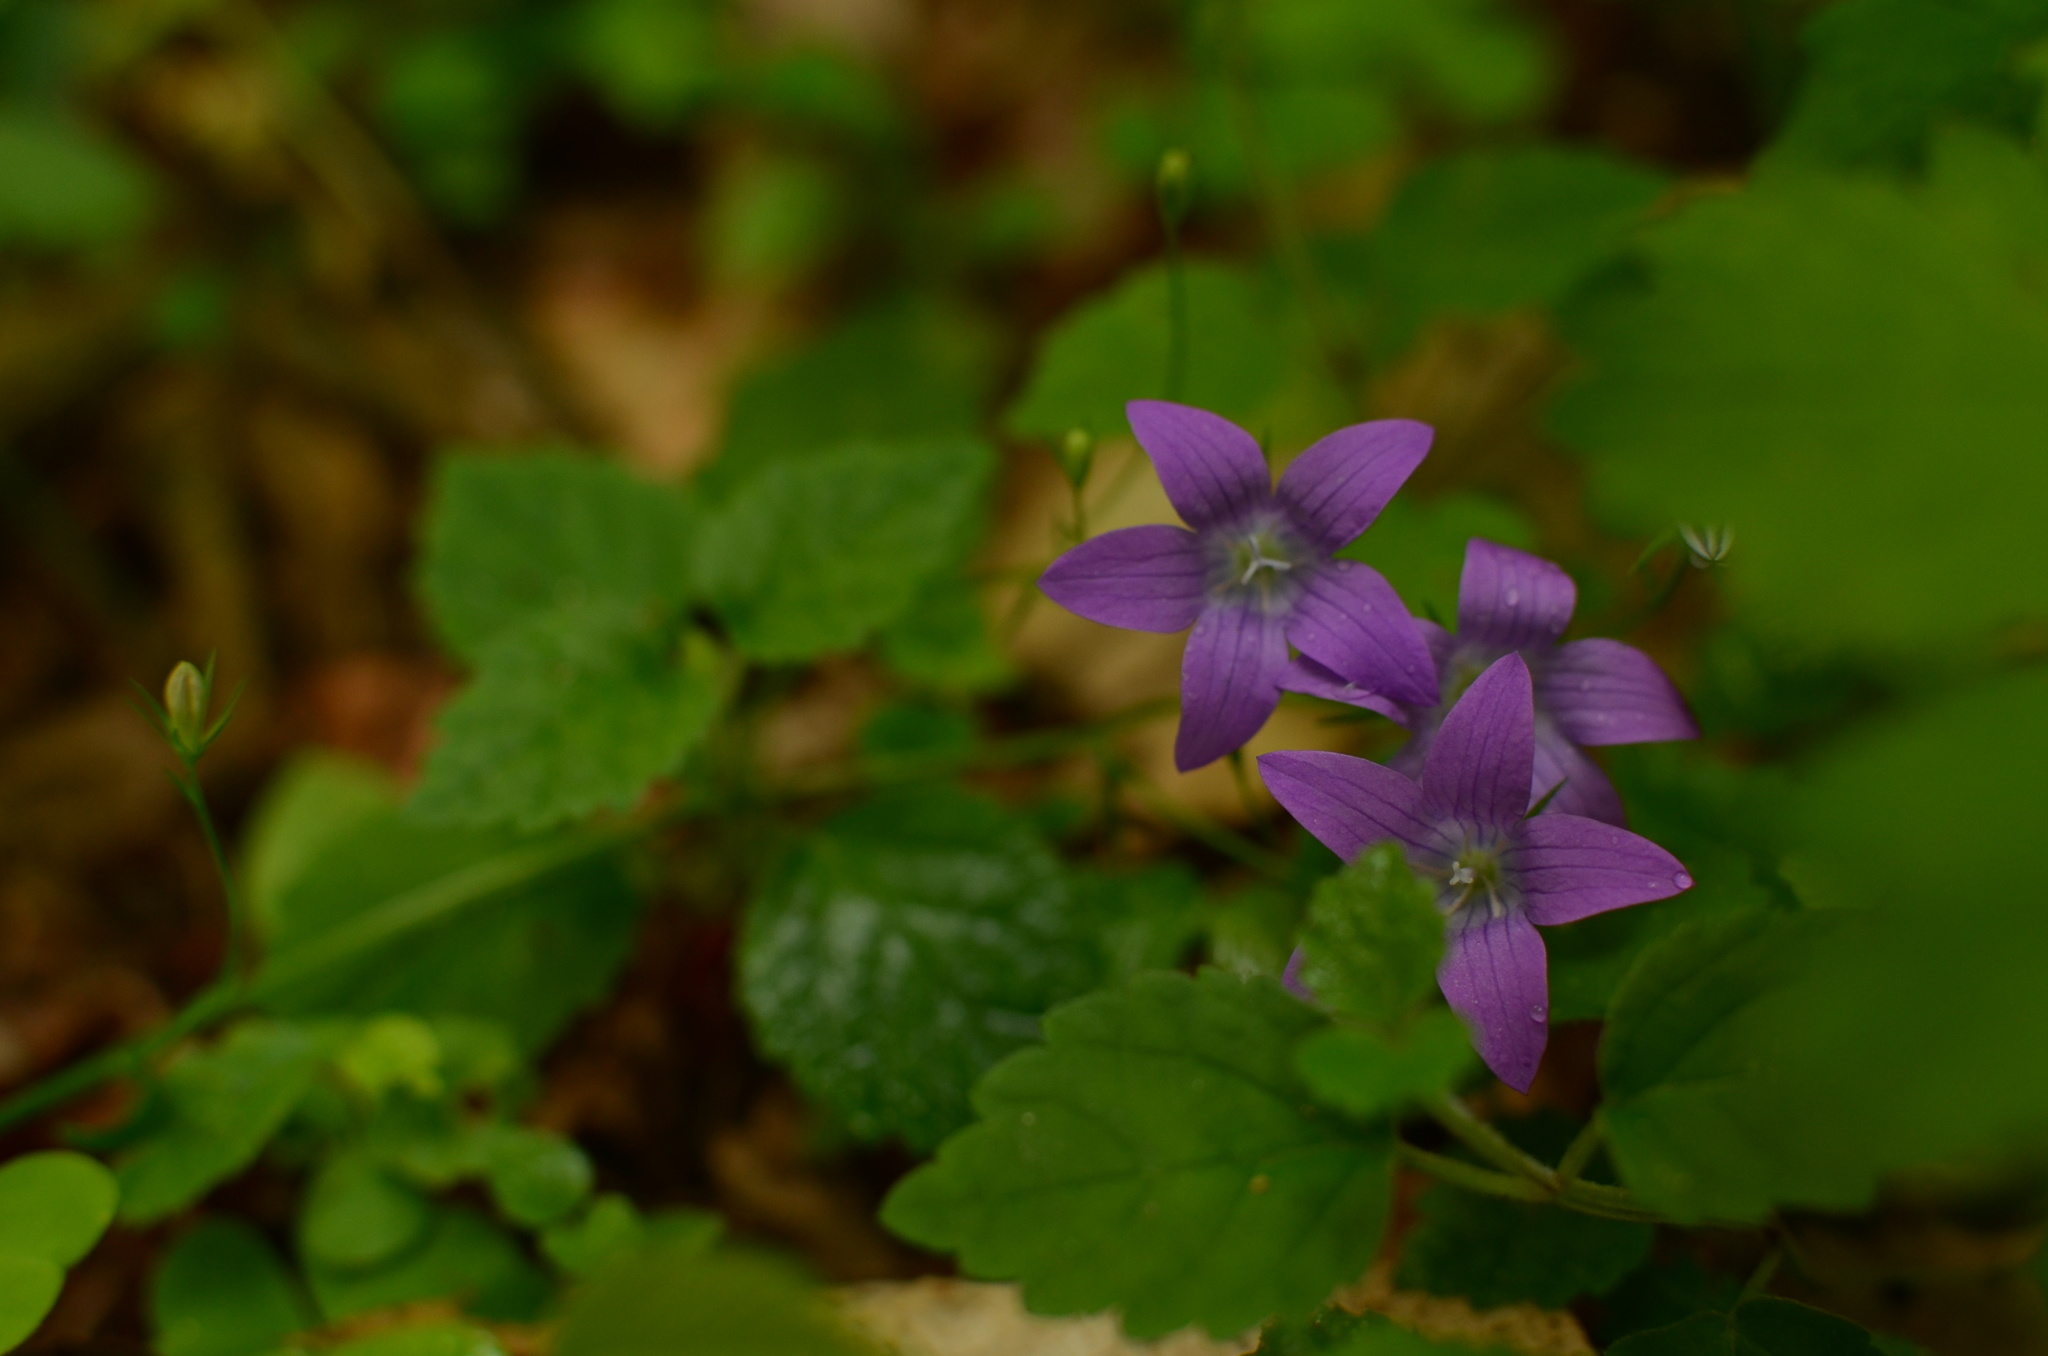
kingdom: Plantae
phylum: Tracheophyta
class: Magnoliopsida
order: Asterales
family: Campanulaceae
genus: Campanula
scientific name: Campanula patula
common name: Spreading bellflower
